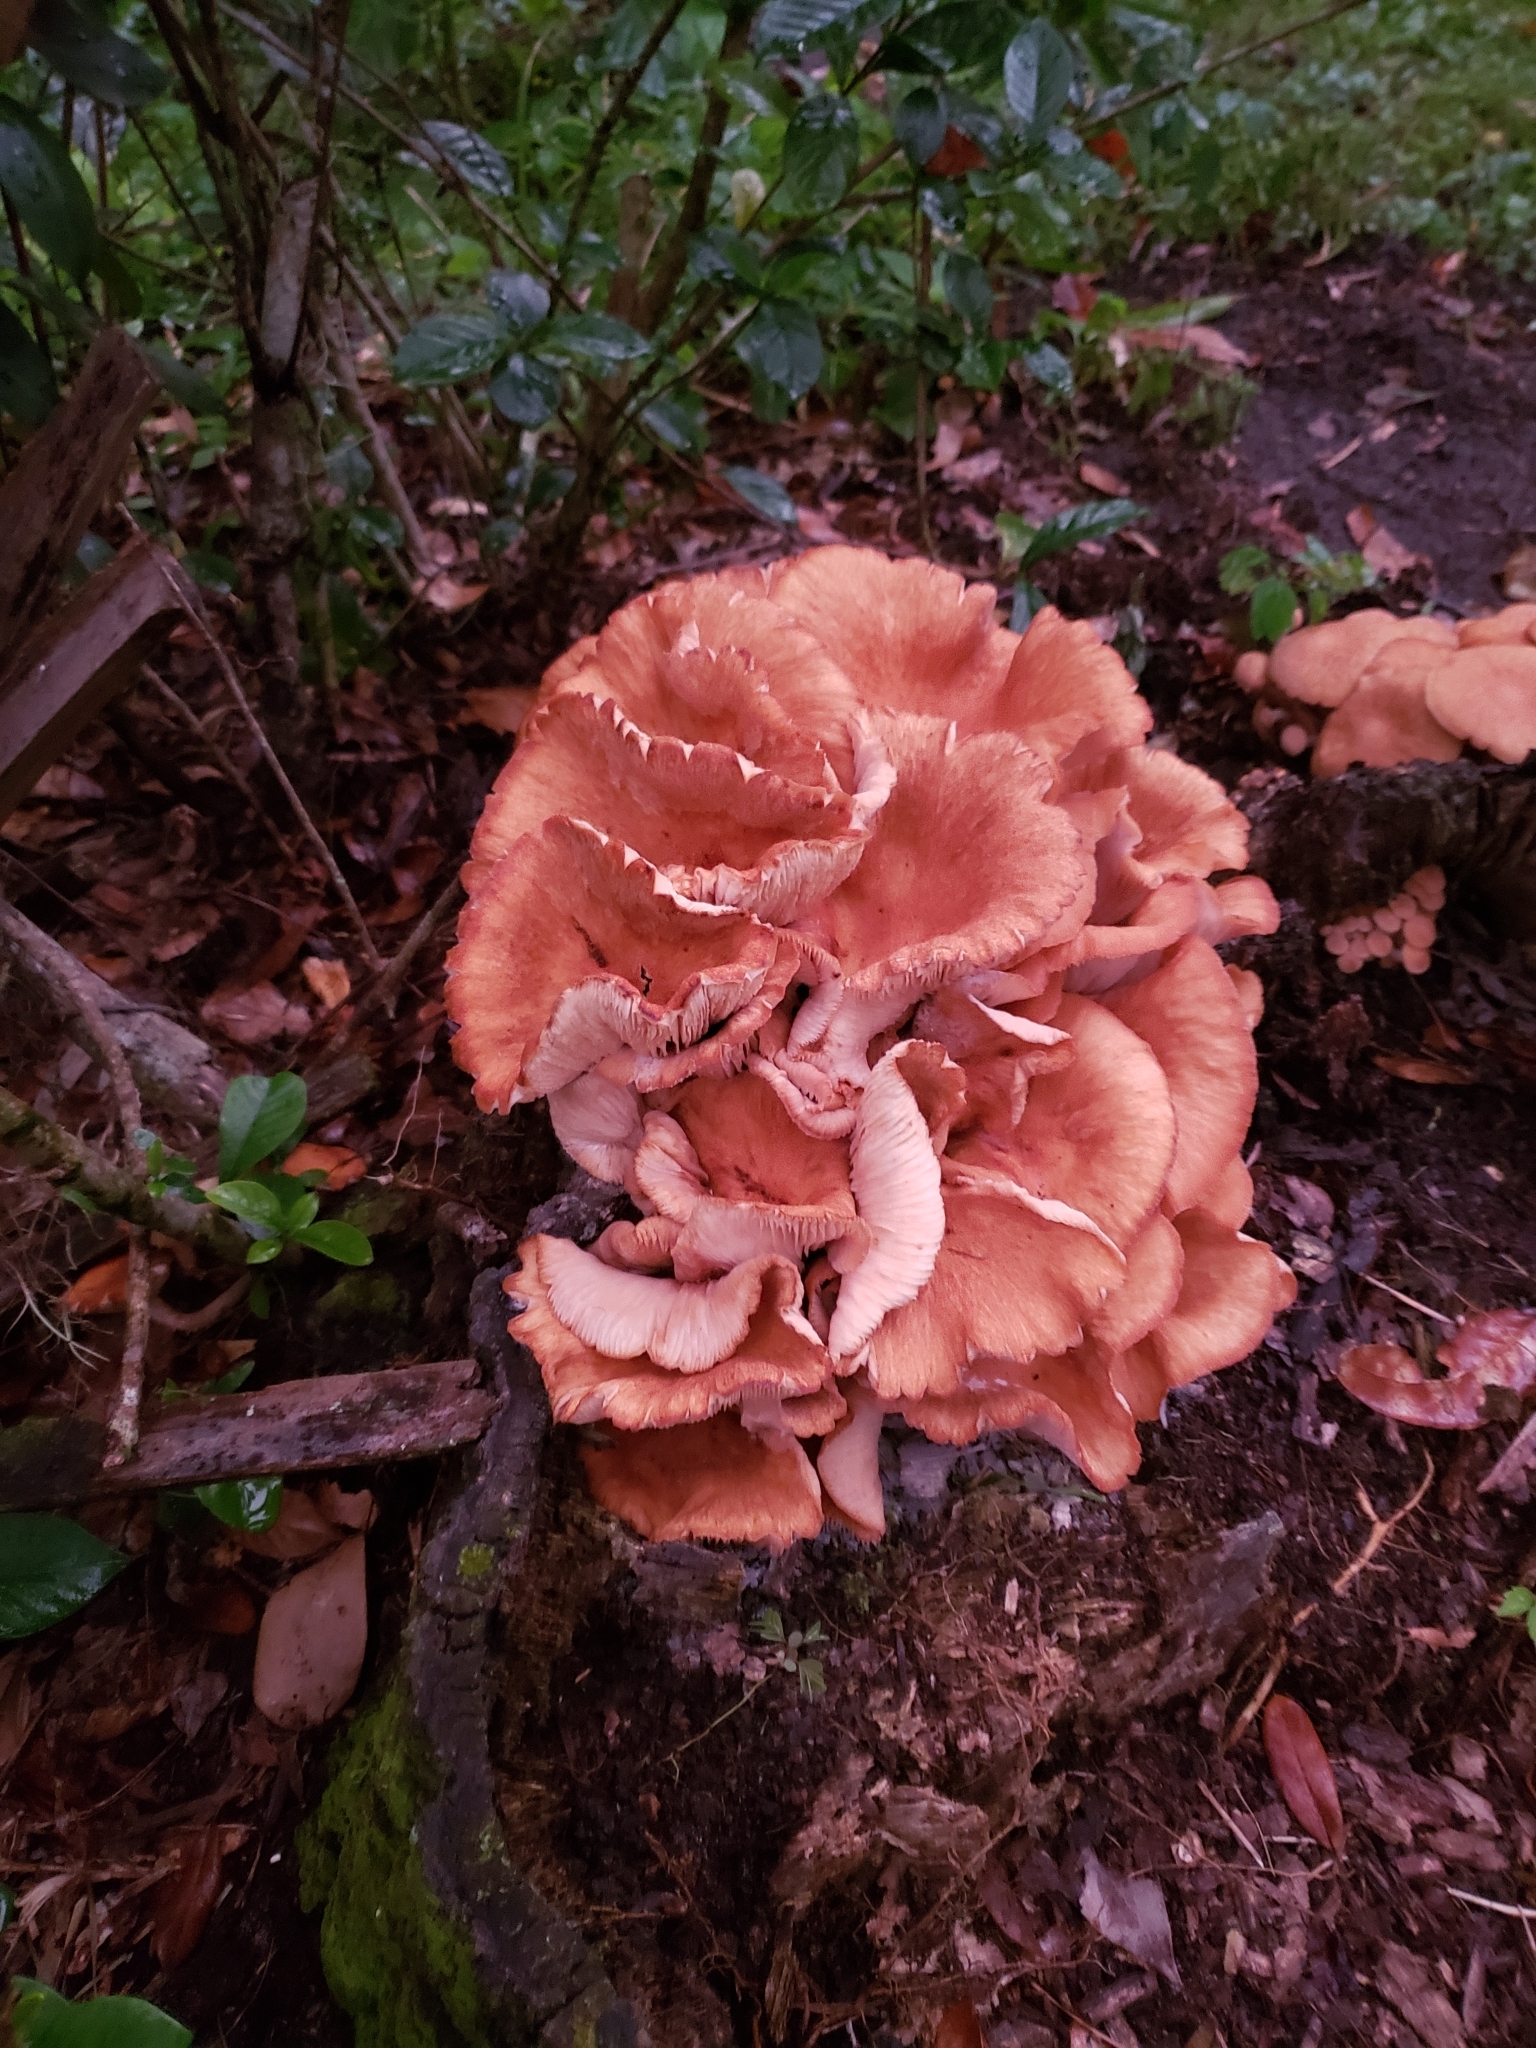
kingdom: Fungi
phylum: Basidiomycota
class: Agaricomycetes
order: Agaricales
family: Physalacriaceae
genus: Desarmillaria
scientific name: Desarmillaria caespitosa
